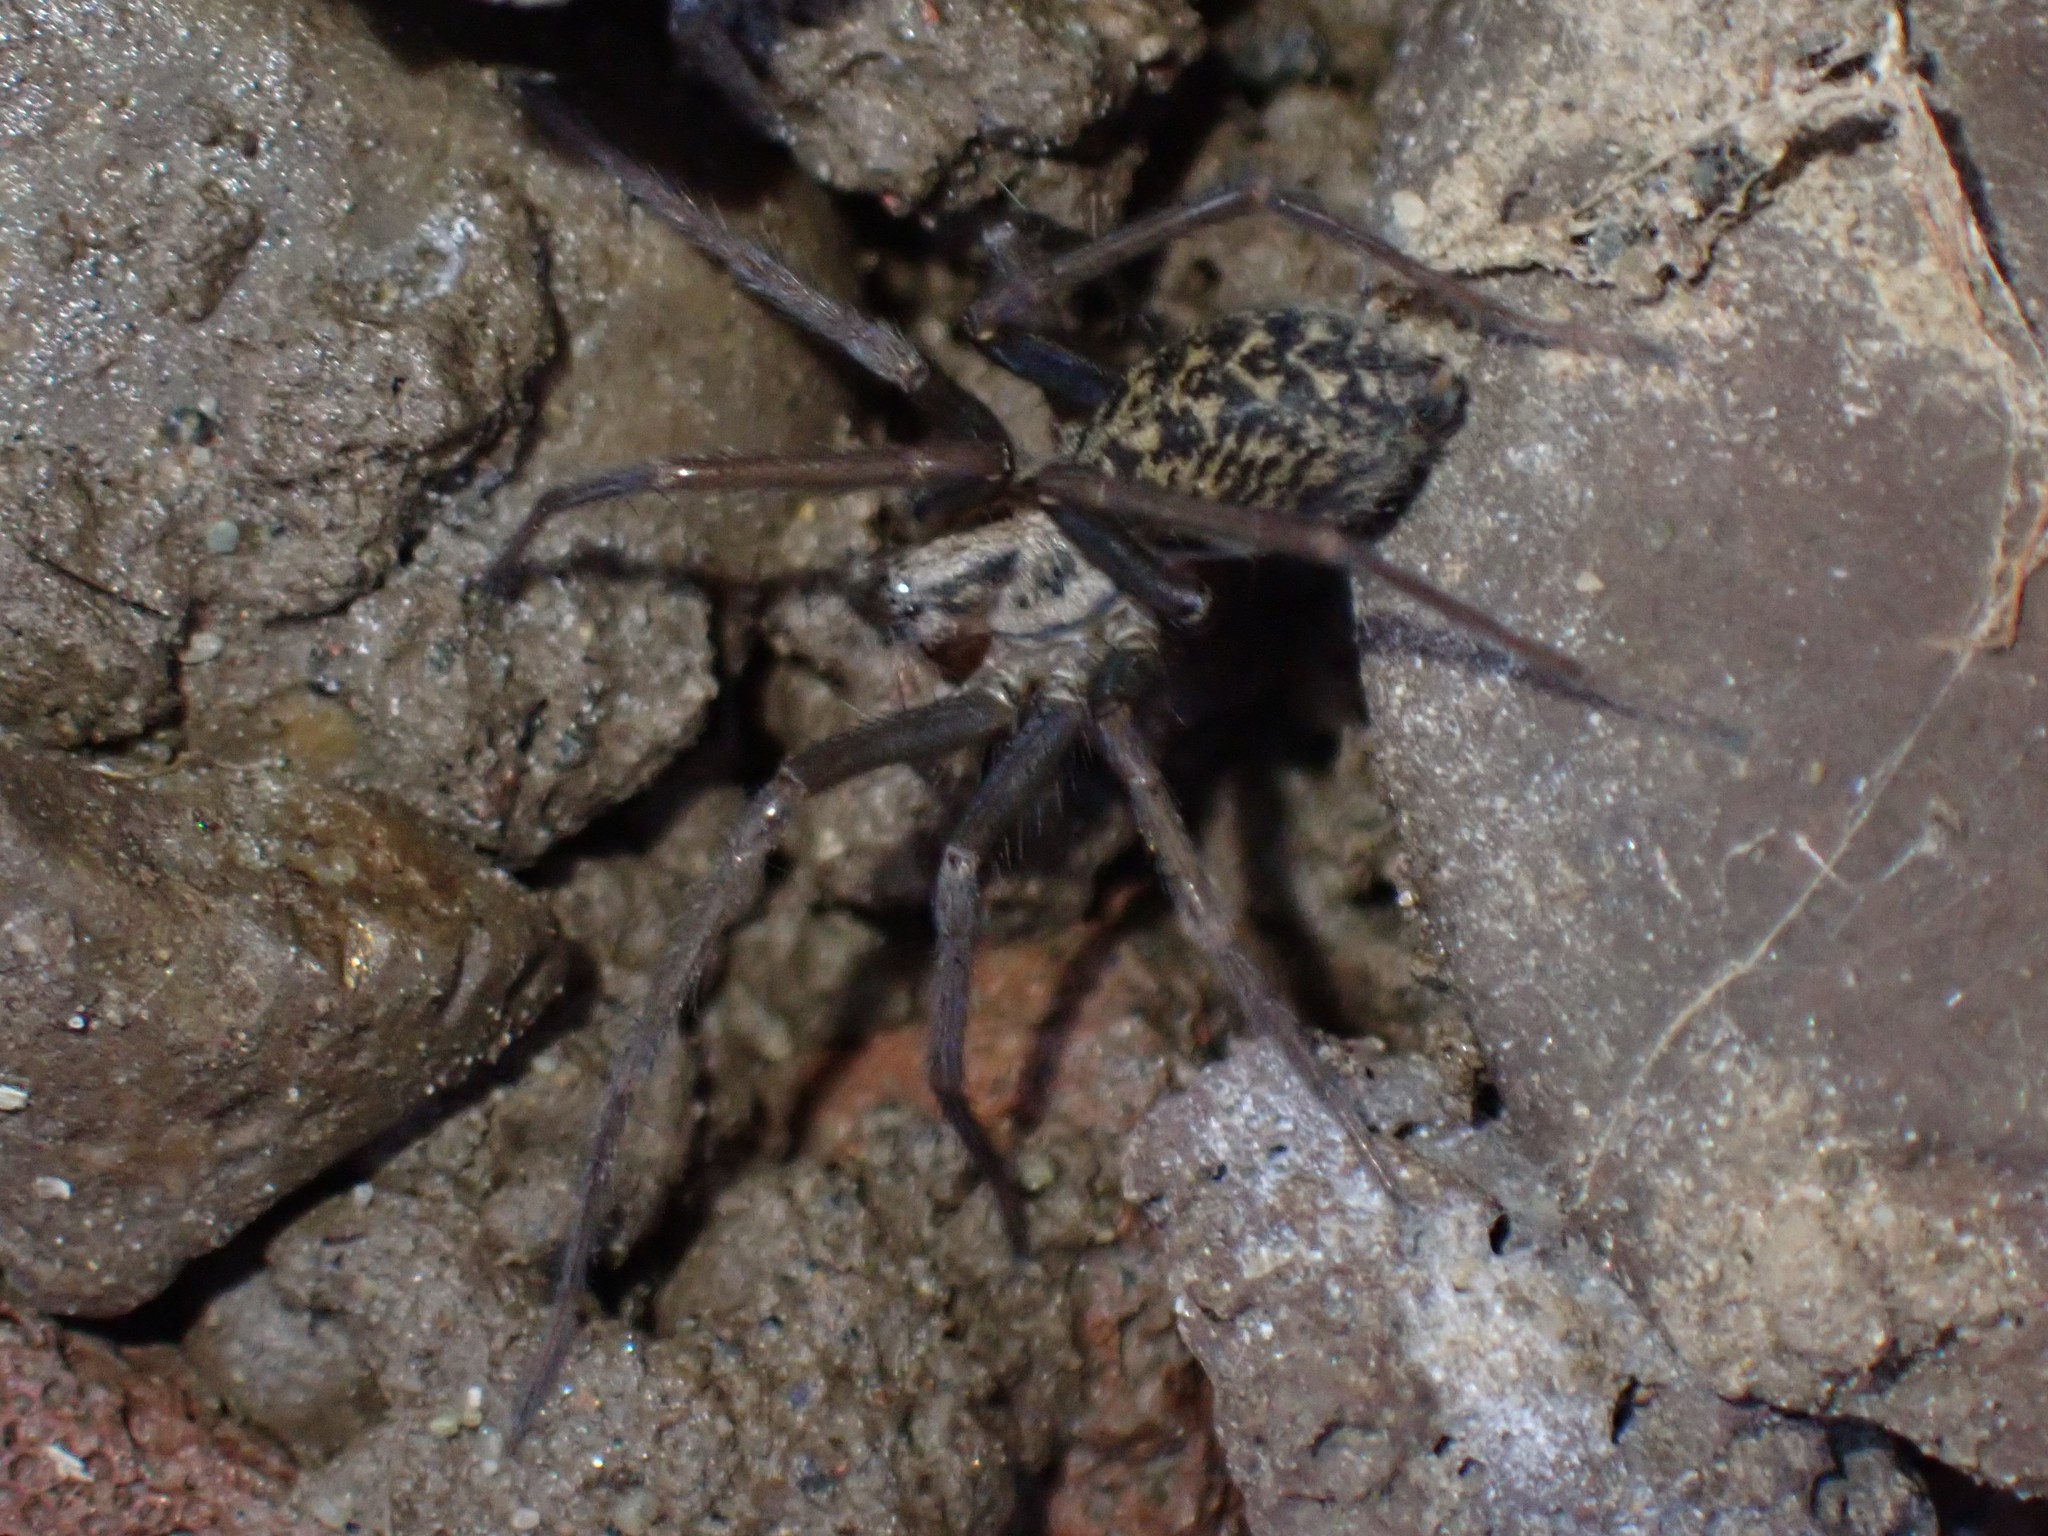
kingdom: Animalia
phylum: Arthropoda
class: Arachnida
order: Araneae
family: Agelenidae
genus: Eratigena
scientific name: Eratigena duellica
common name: Giant house spider
